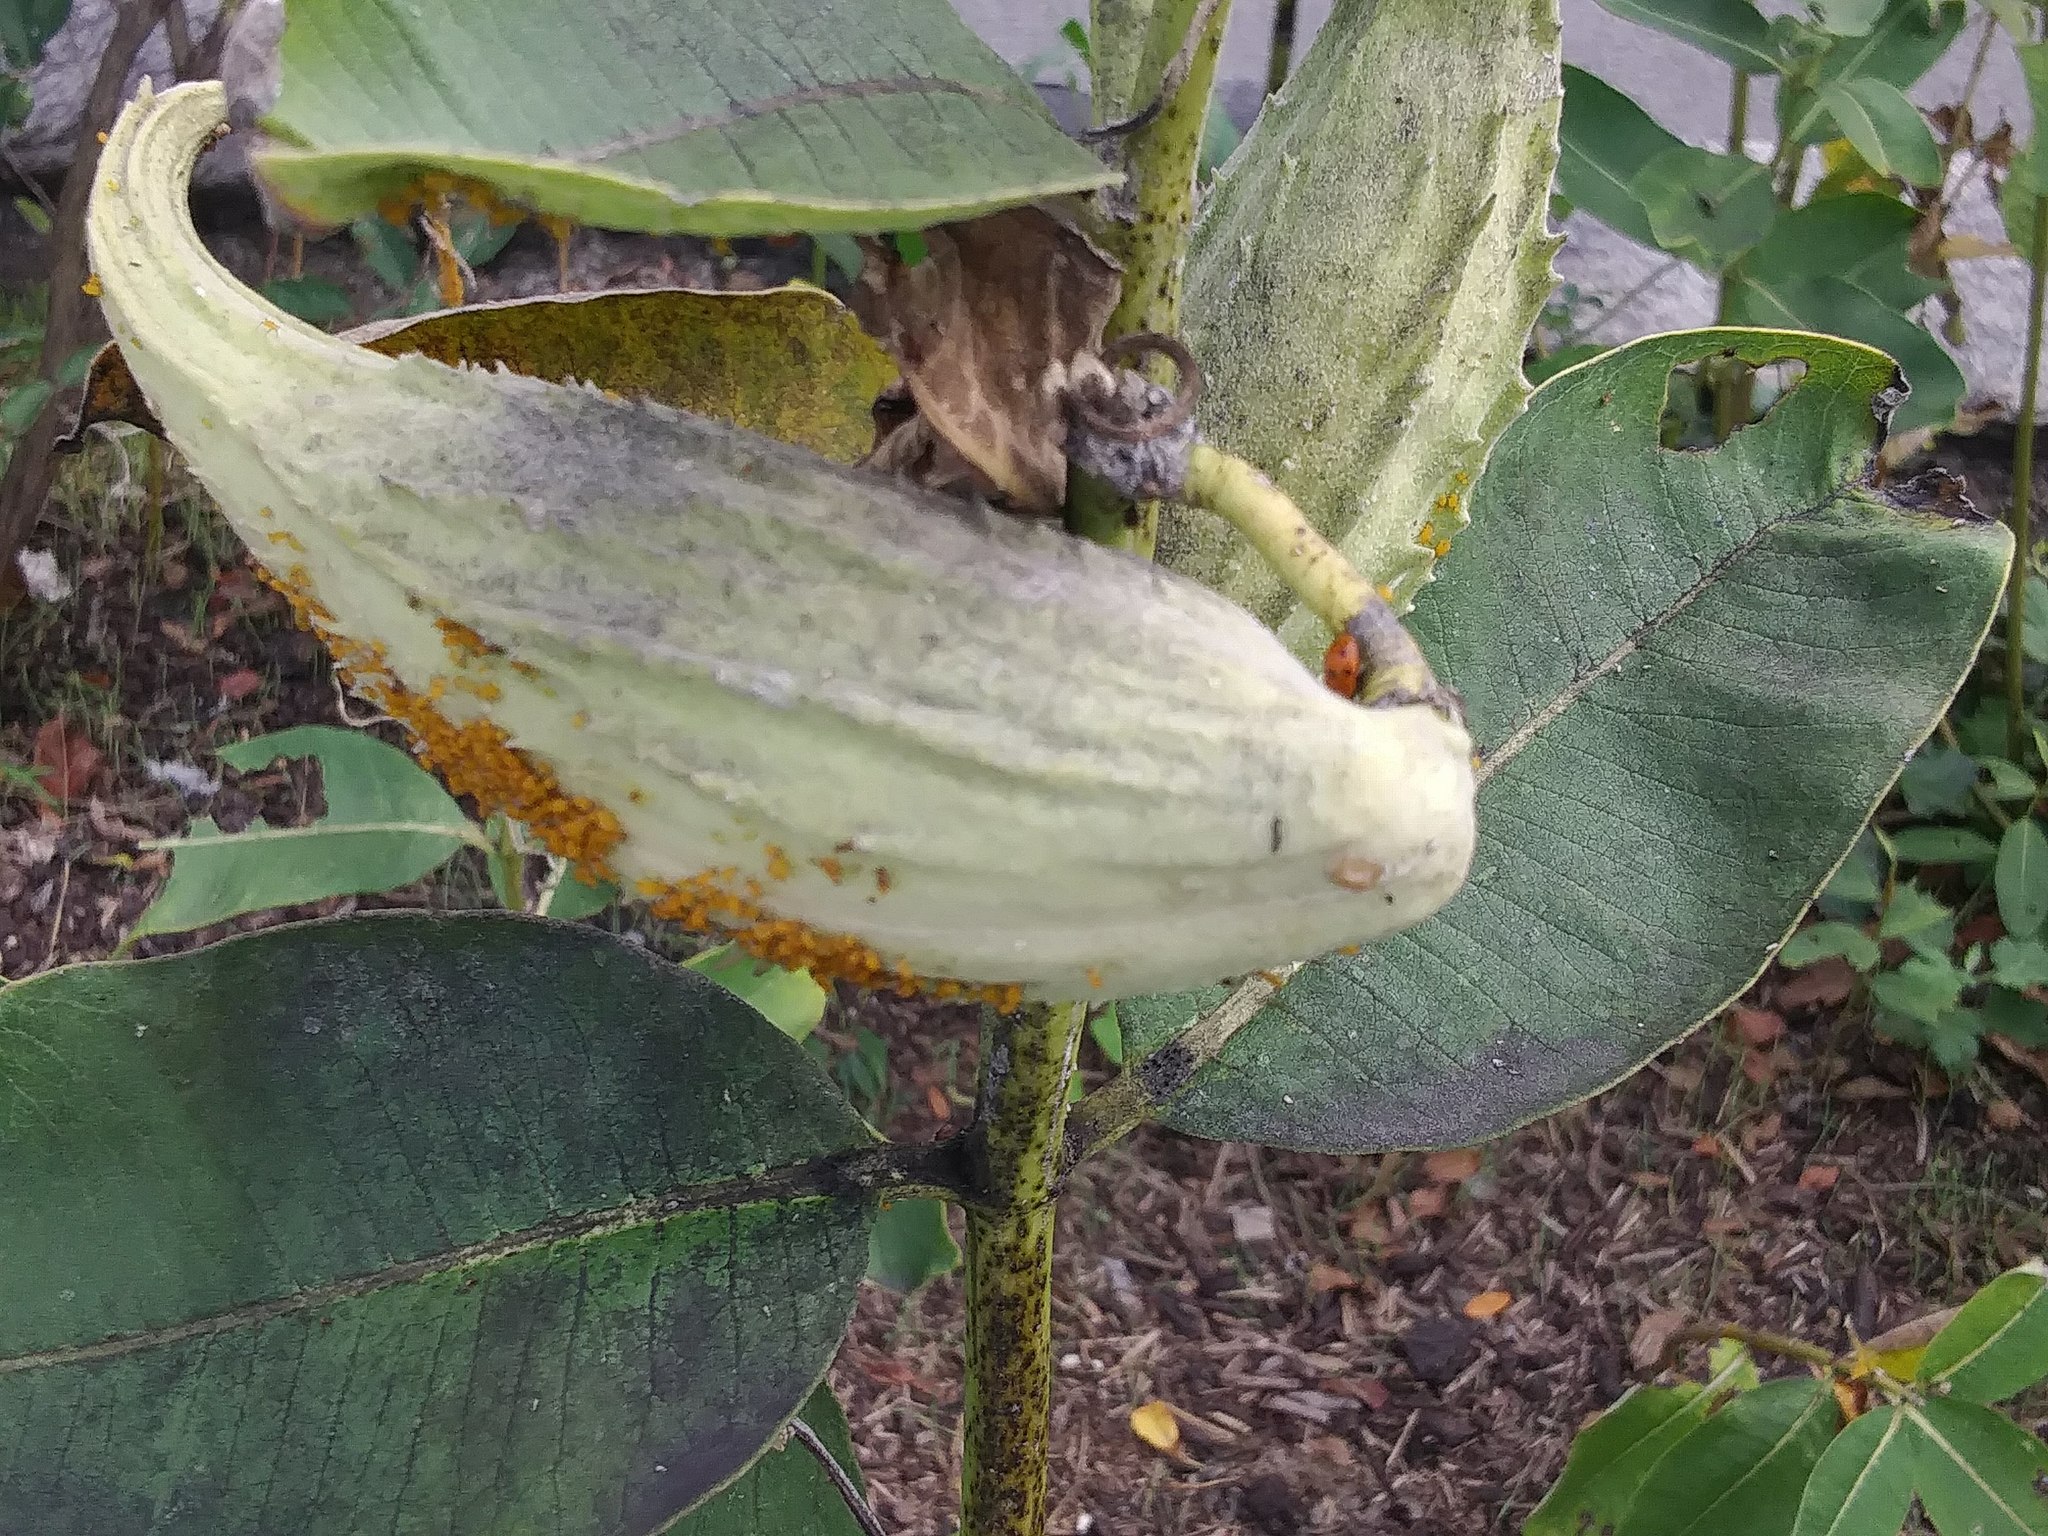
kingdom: Animalia
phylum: Arthropoda
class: Insecta
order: Hemiptera
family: Aphididae
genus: Aphis
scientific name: Aphis nerii
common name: Oleander aphid
